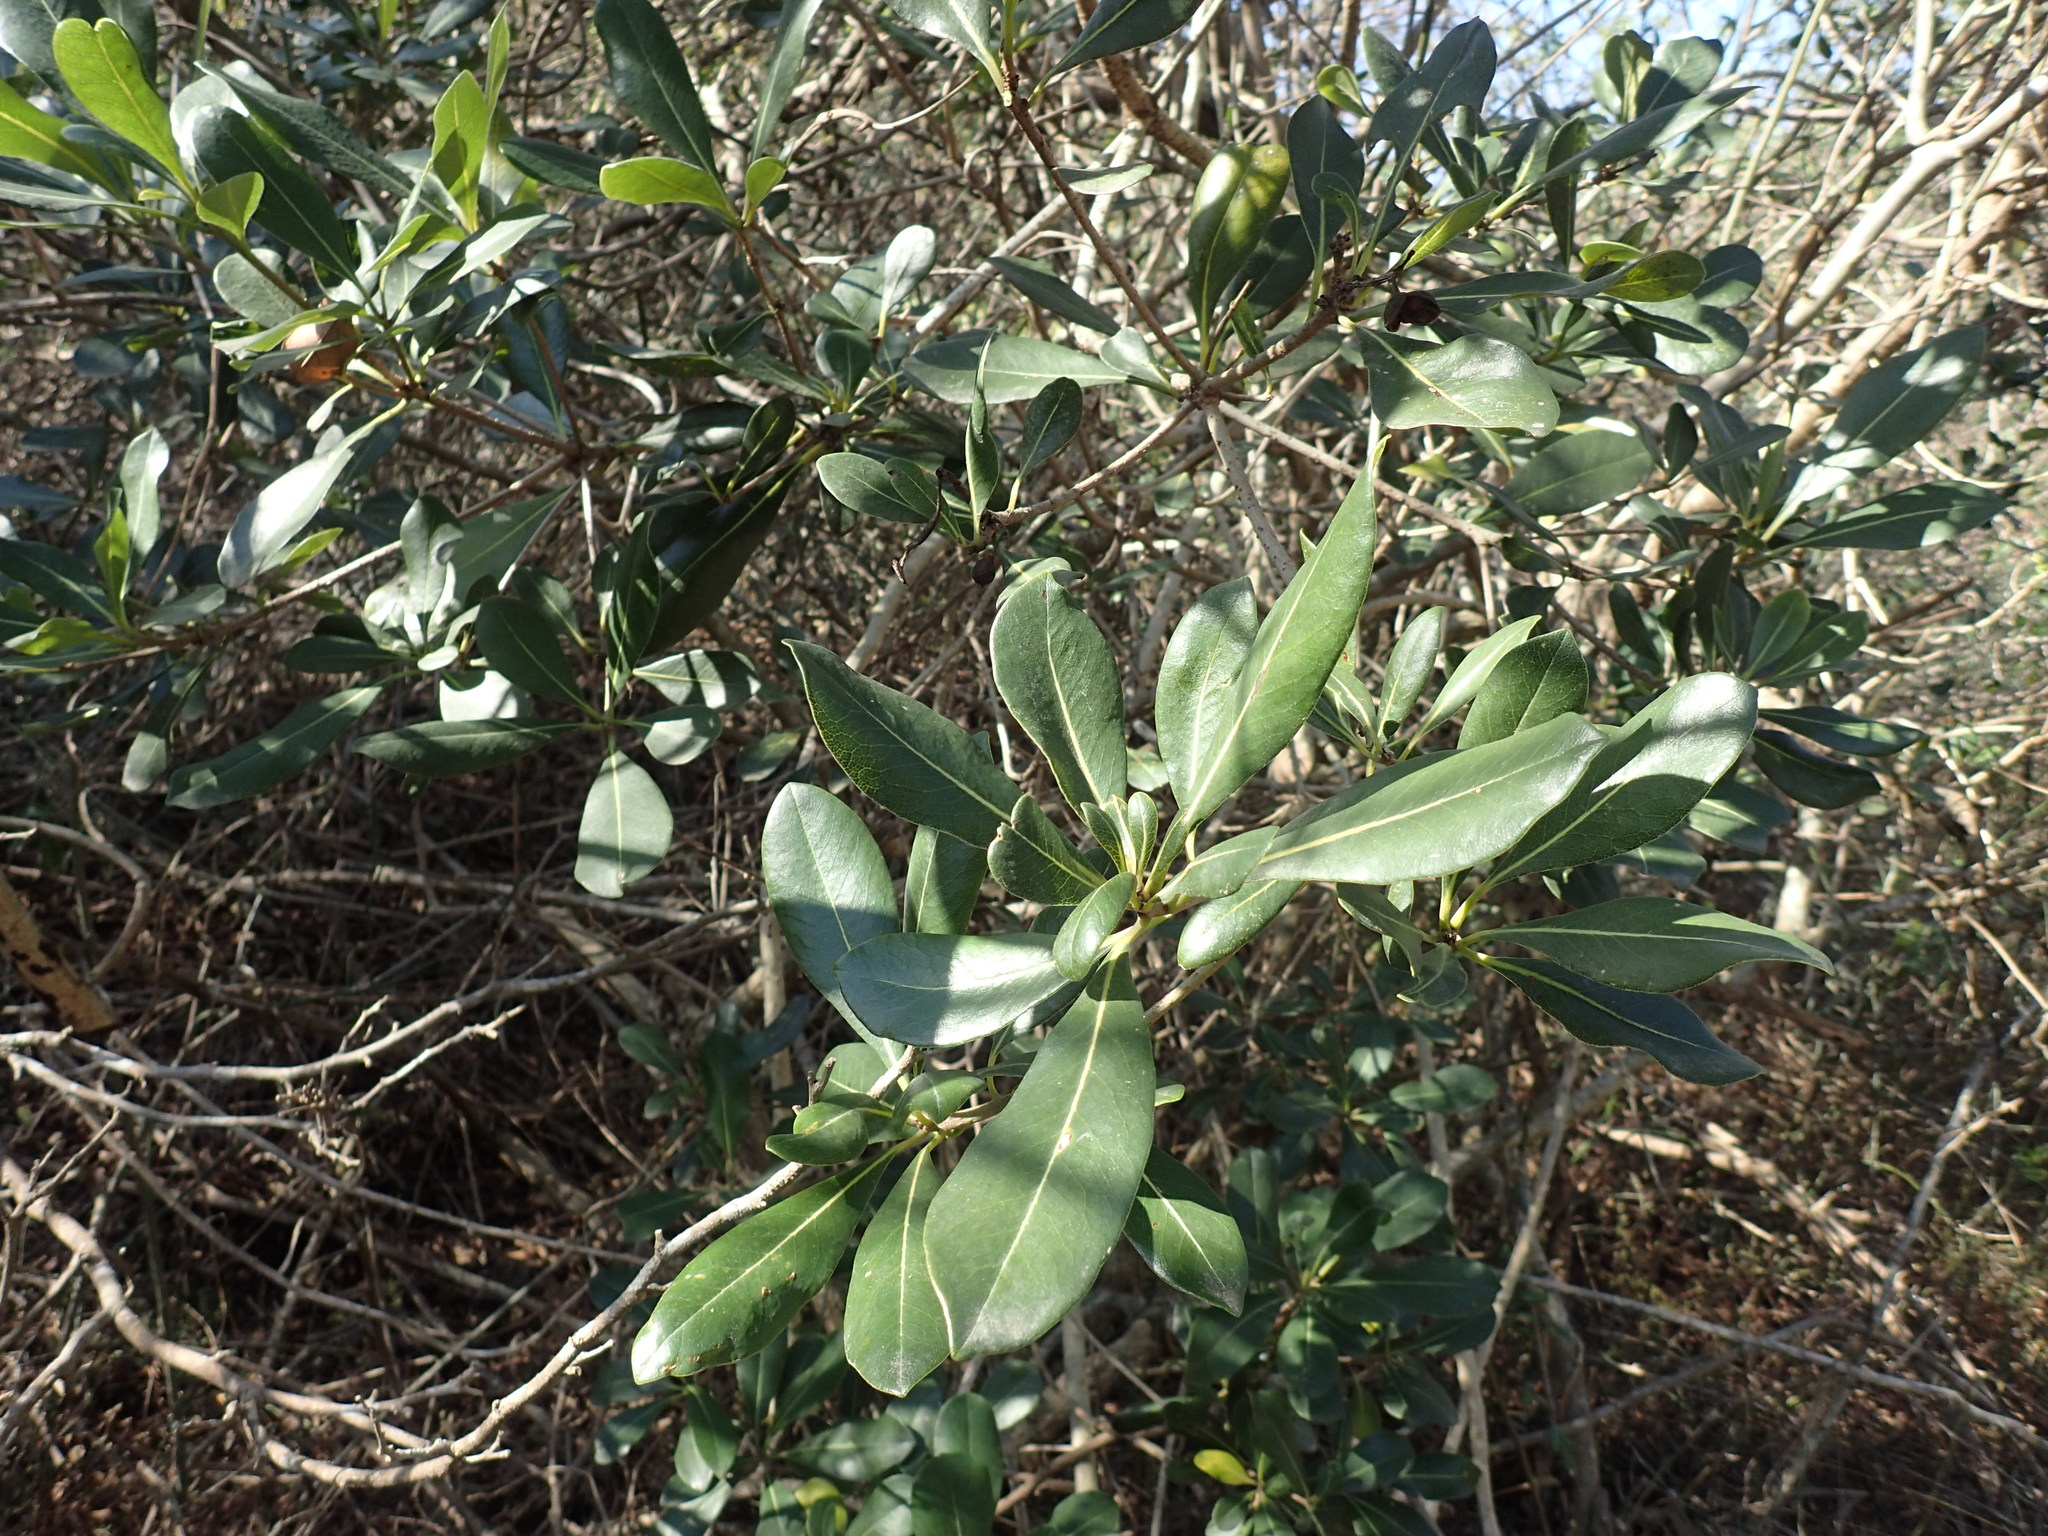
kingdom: Plantae
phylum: Tracheophyta
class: Magnoliopsida
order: Apiales
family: Pittosporaceae
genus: Pittosporum
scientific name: Pittosporum viridiflorum
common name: Cape cheesewood
